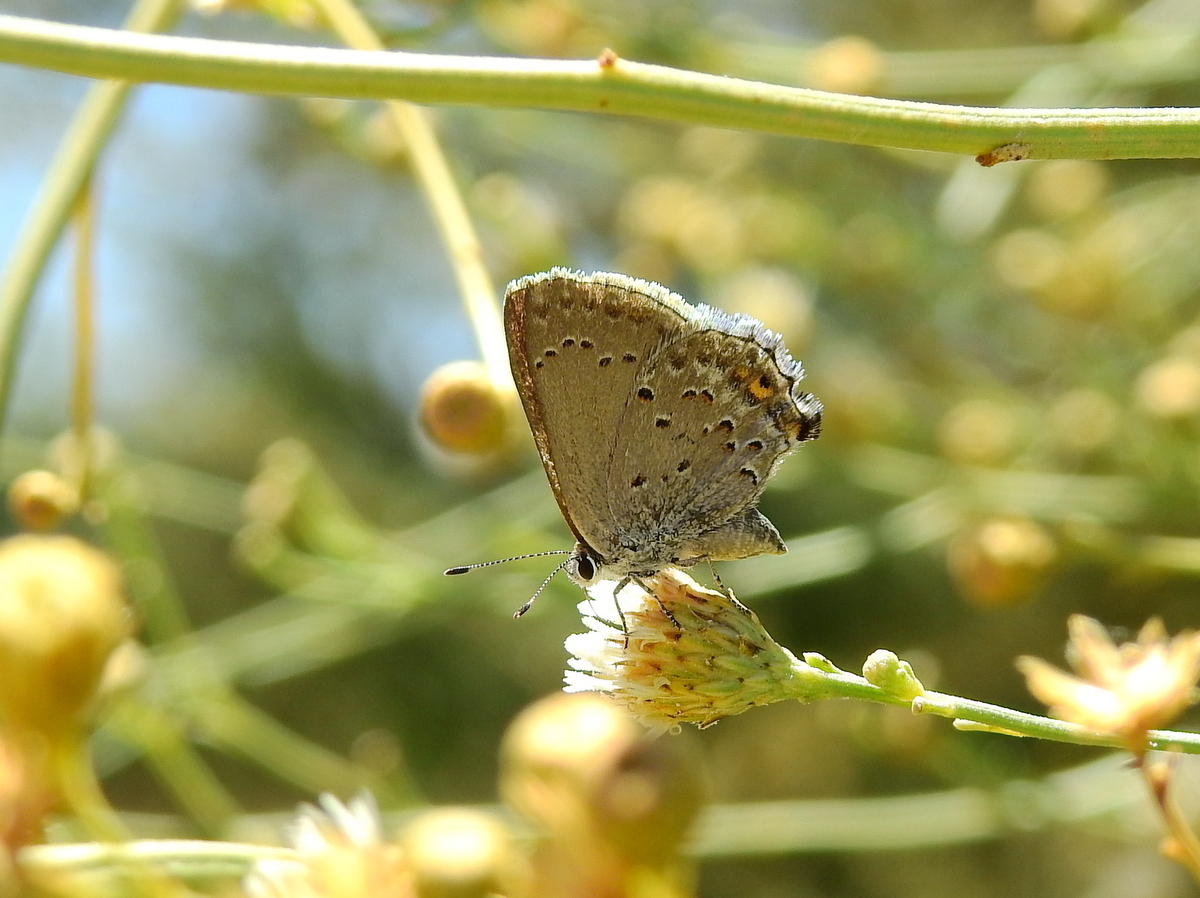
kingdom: Animalia
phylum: Arthropoda
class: Insecta
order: Lepidoptera
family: Lycaenidae
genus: Strymon
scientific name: Strymon eurytulus
